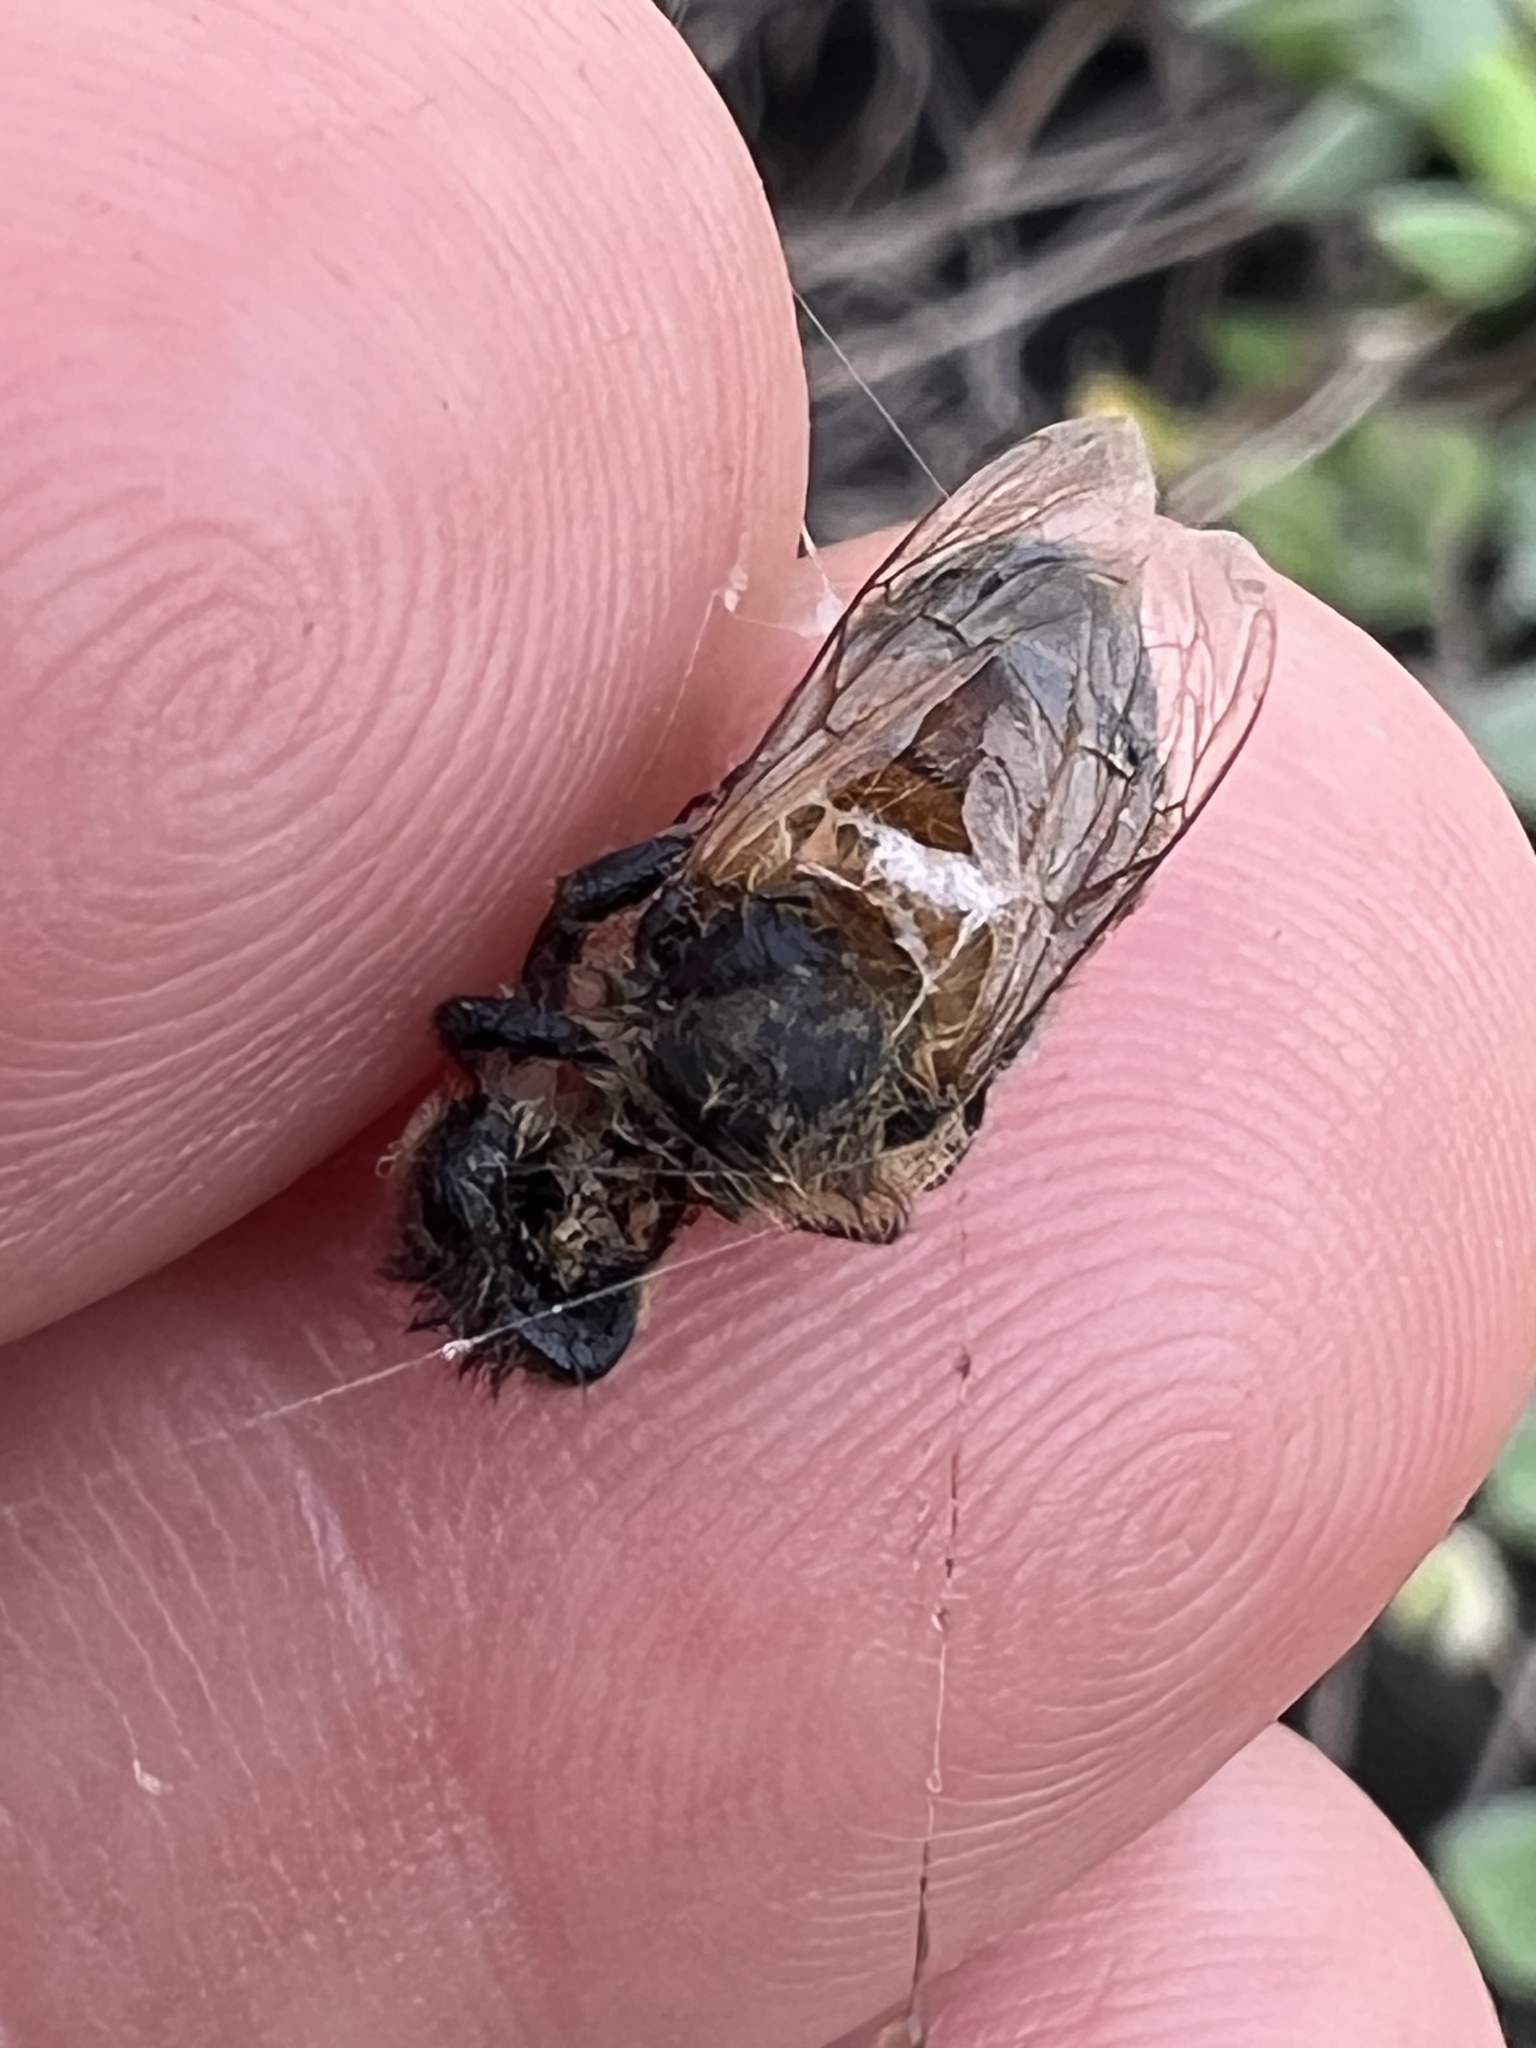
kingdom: Animalia
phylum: Arthropoda
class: Insecta
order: Hymenoptera
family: Apidae
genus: Apis
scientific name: Apis mellifera
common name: Honey bee
